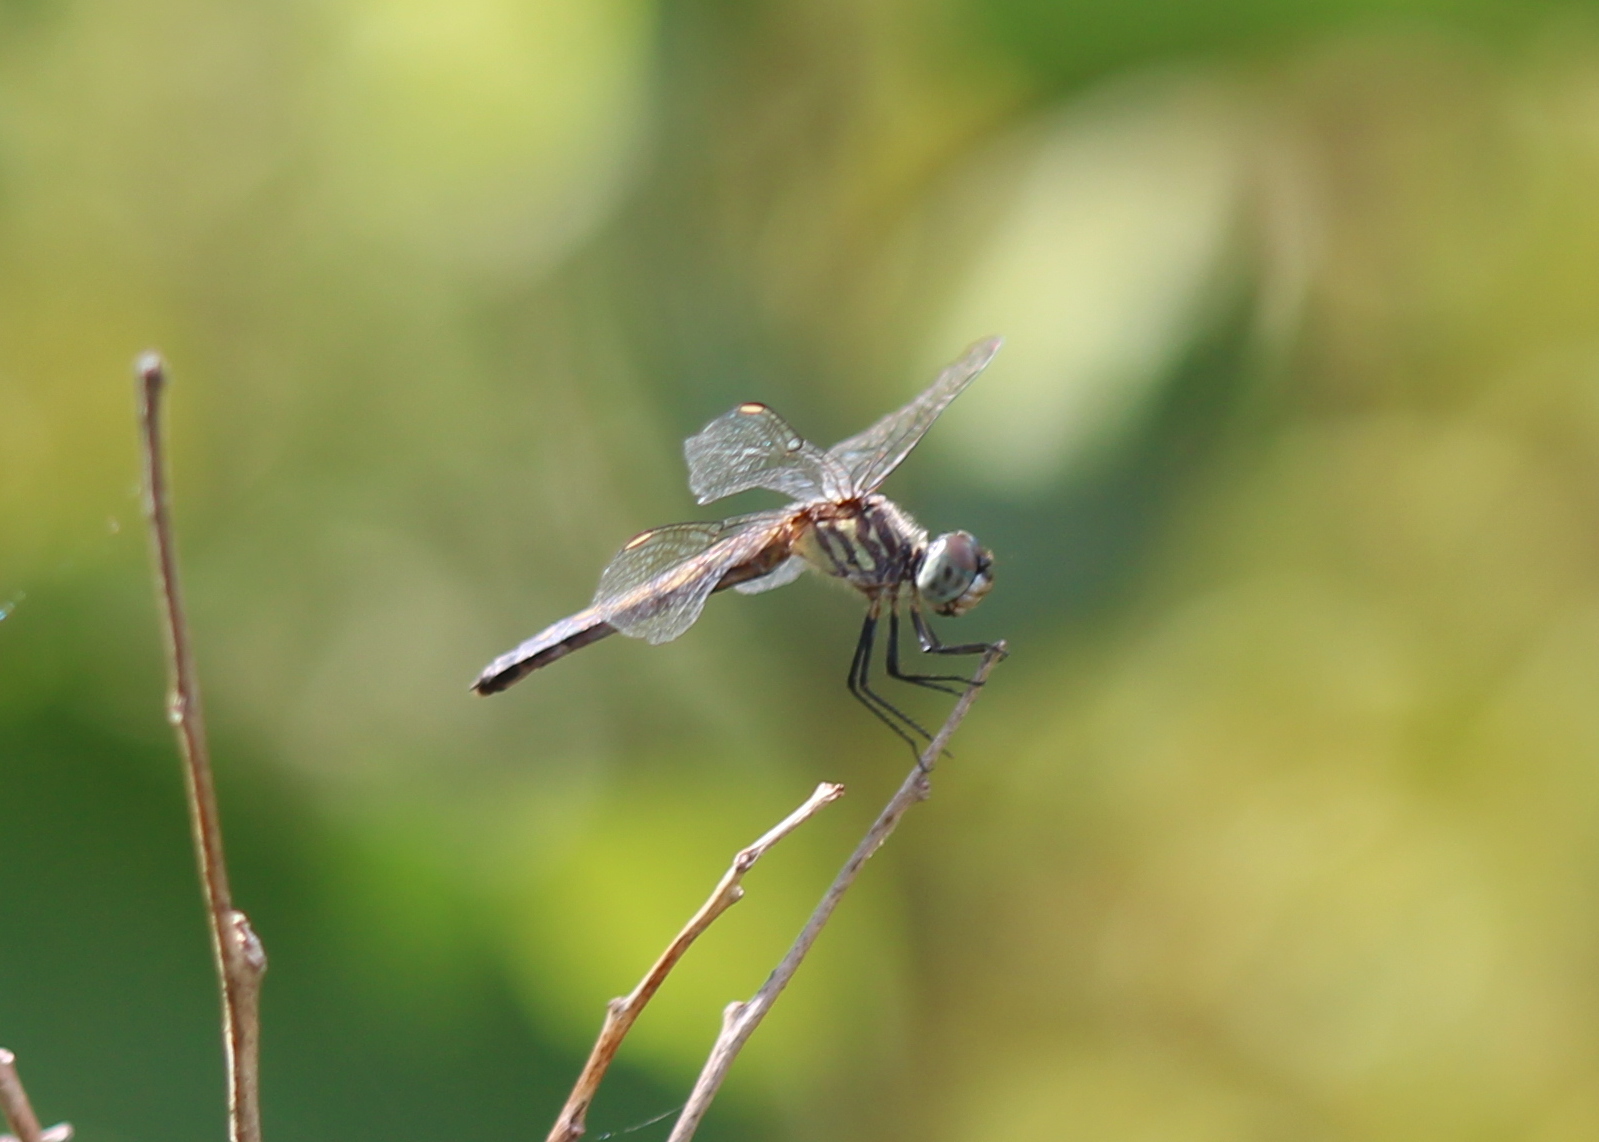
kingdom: Animalia
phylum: Arthropoda
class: Insecta
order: Odonata
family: Libellulidae
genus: Pachydiplax
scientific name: Pachydiplax longipennis
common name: Blue dasher
